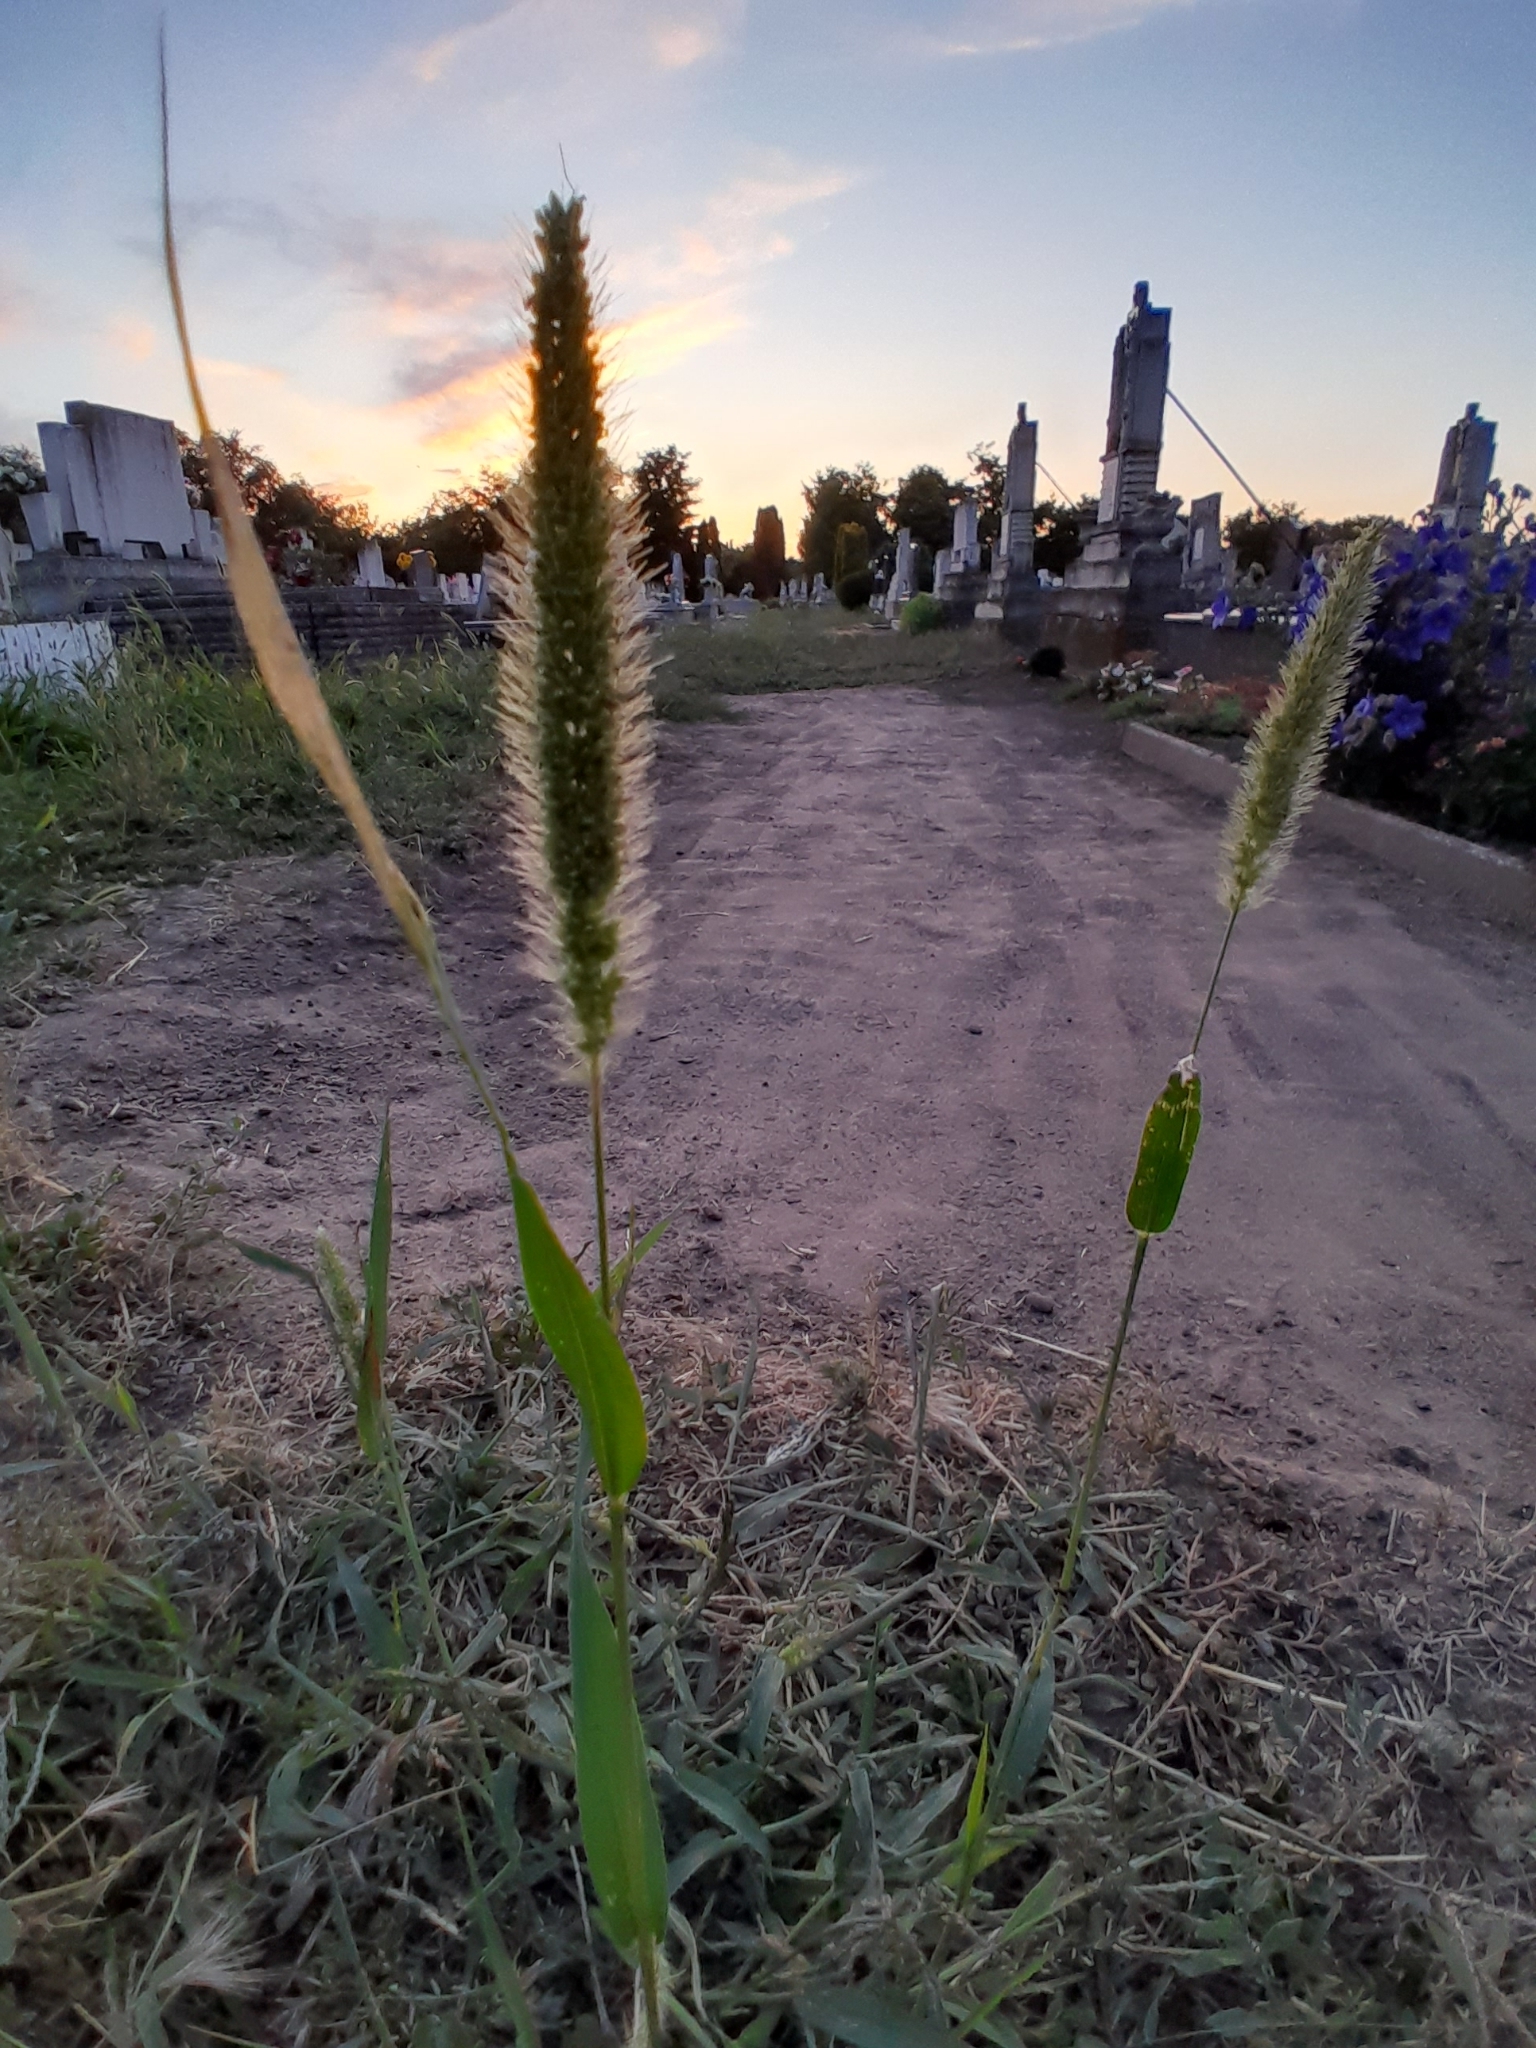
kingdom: Plantae
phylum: Tracheophyta
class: Liliopsida
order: Poales
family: Poaceae
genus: Setaria
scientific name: Setaria viridis
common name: Green bristlegrass
